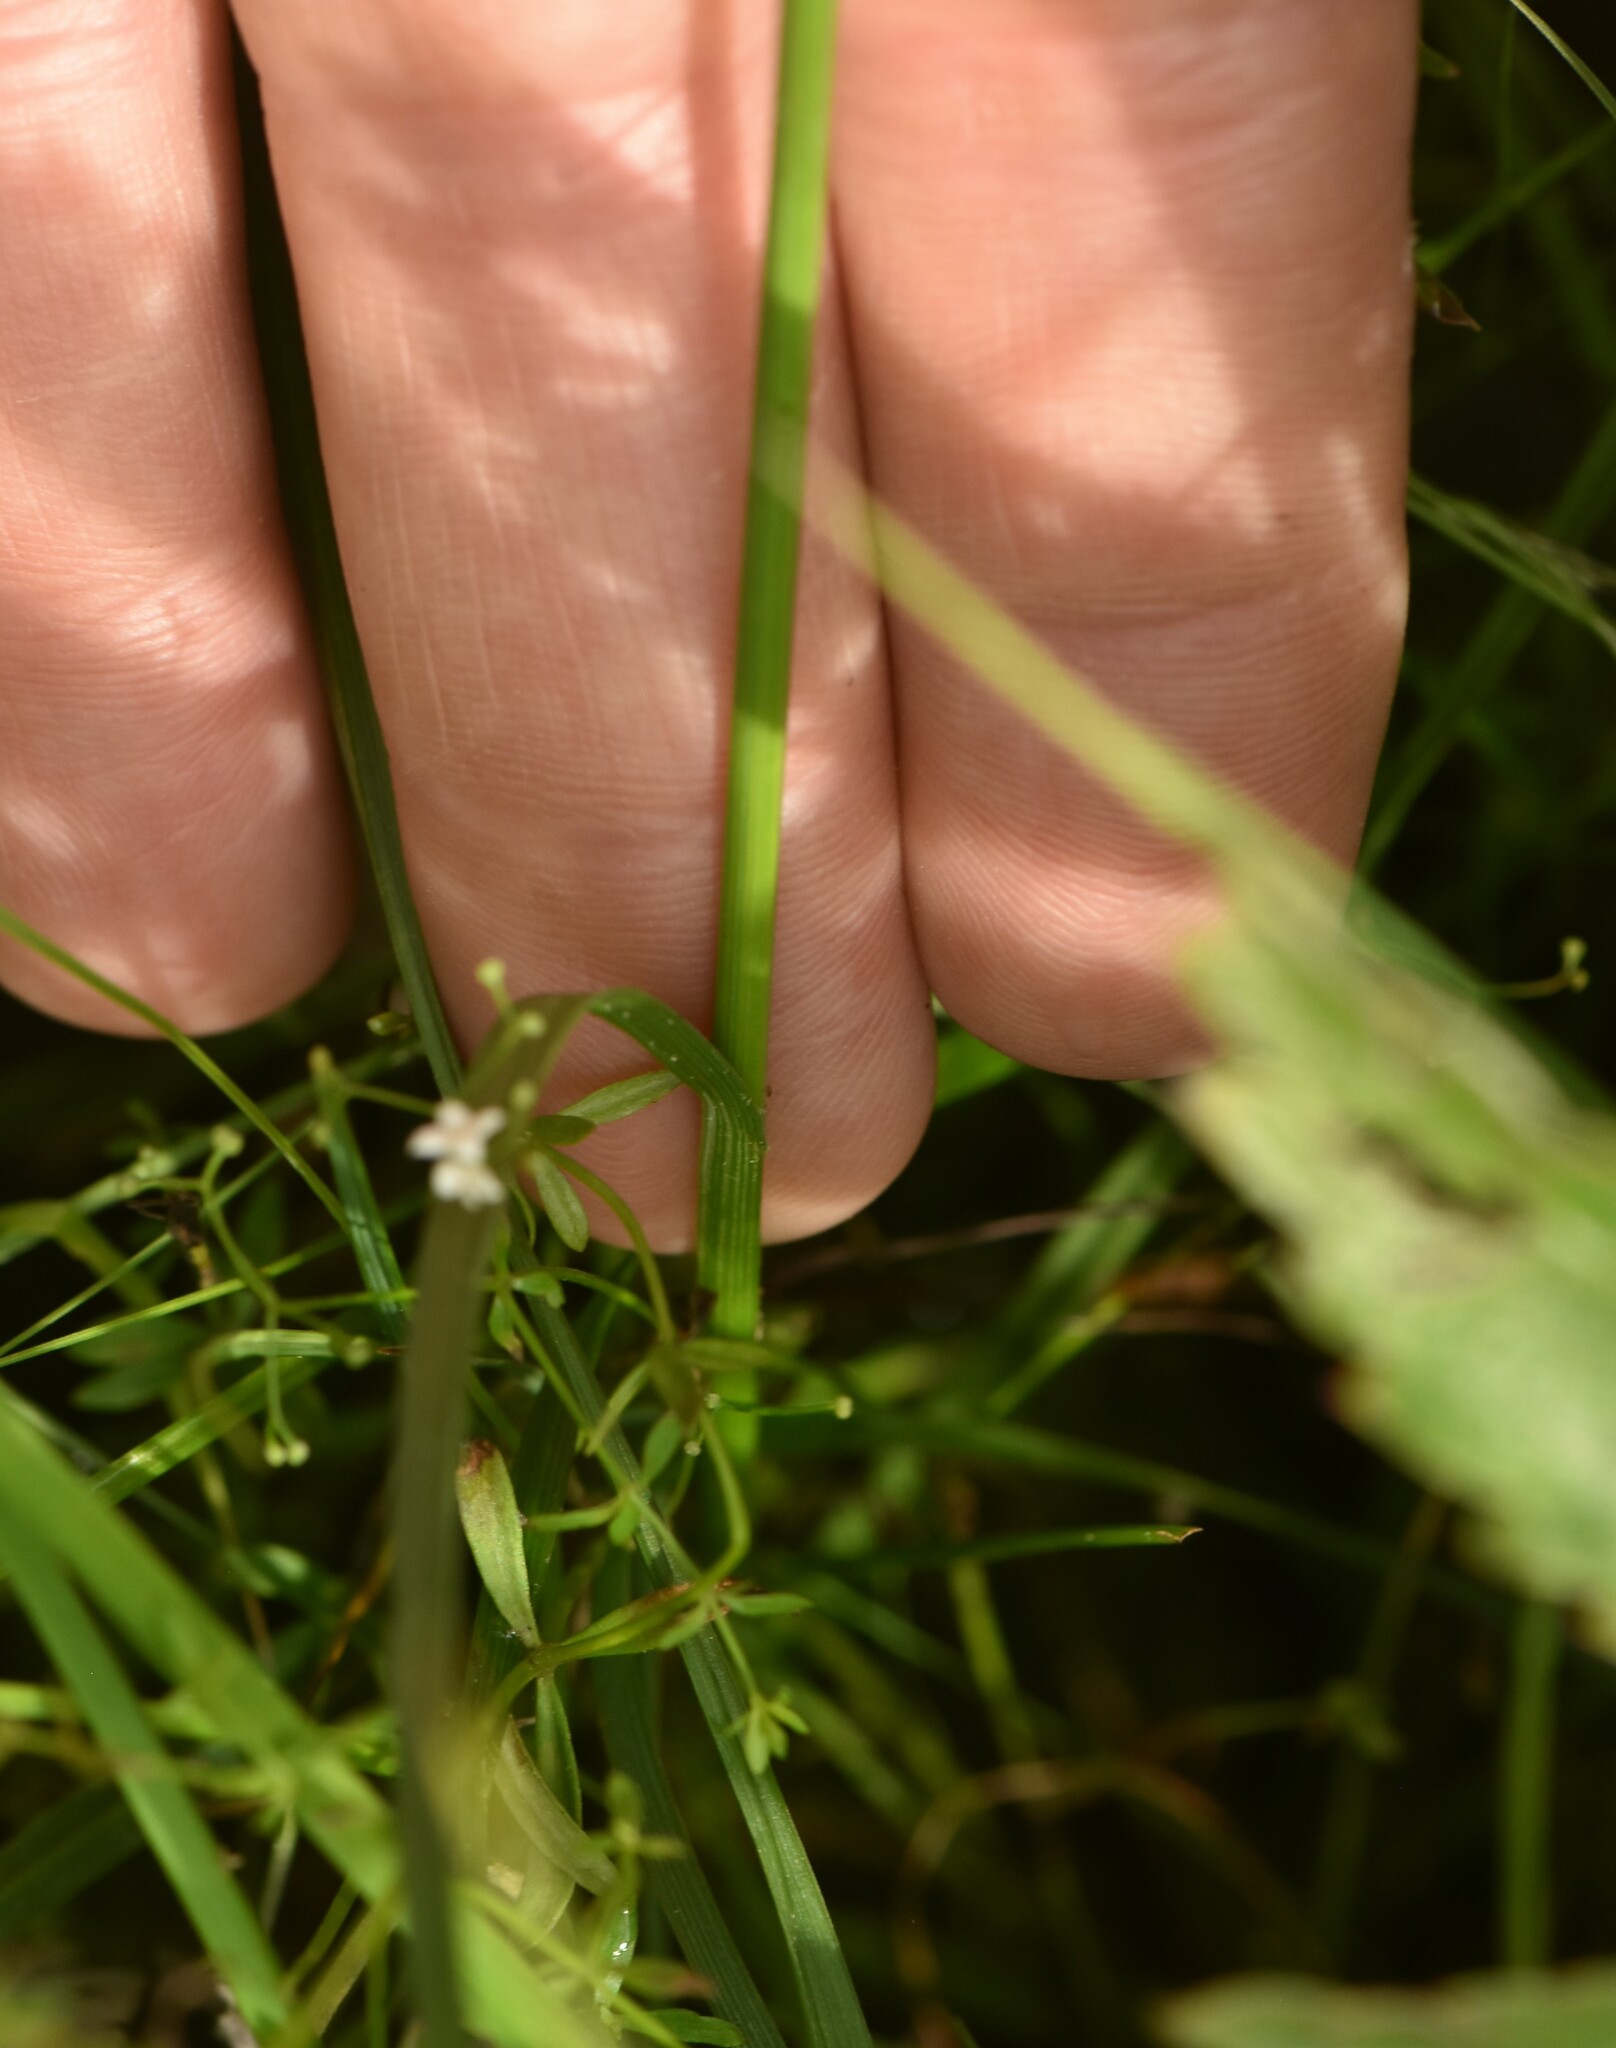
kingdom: Plantae
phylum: Tracheophyta
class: Liliopsida
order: Poales
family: Cyperaceae
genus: Carex
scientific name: Carex leporina
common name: Oval sedge
